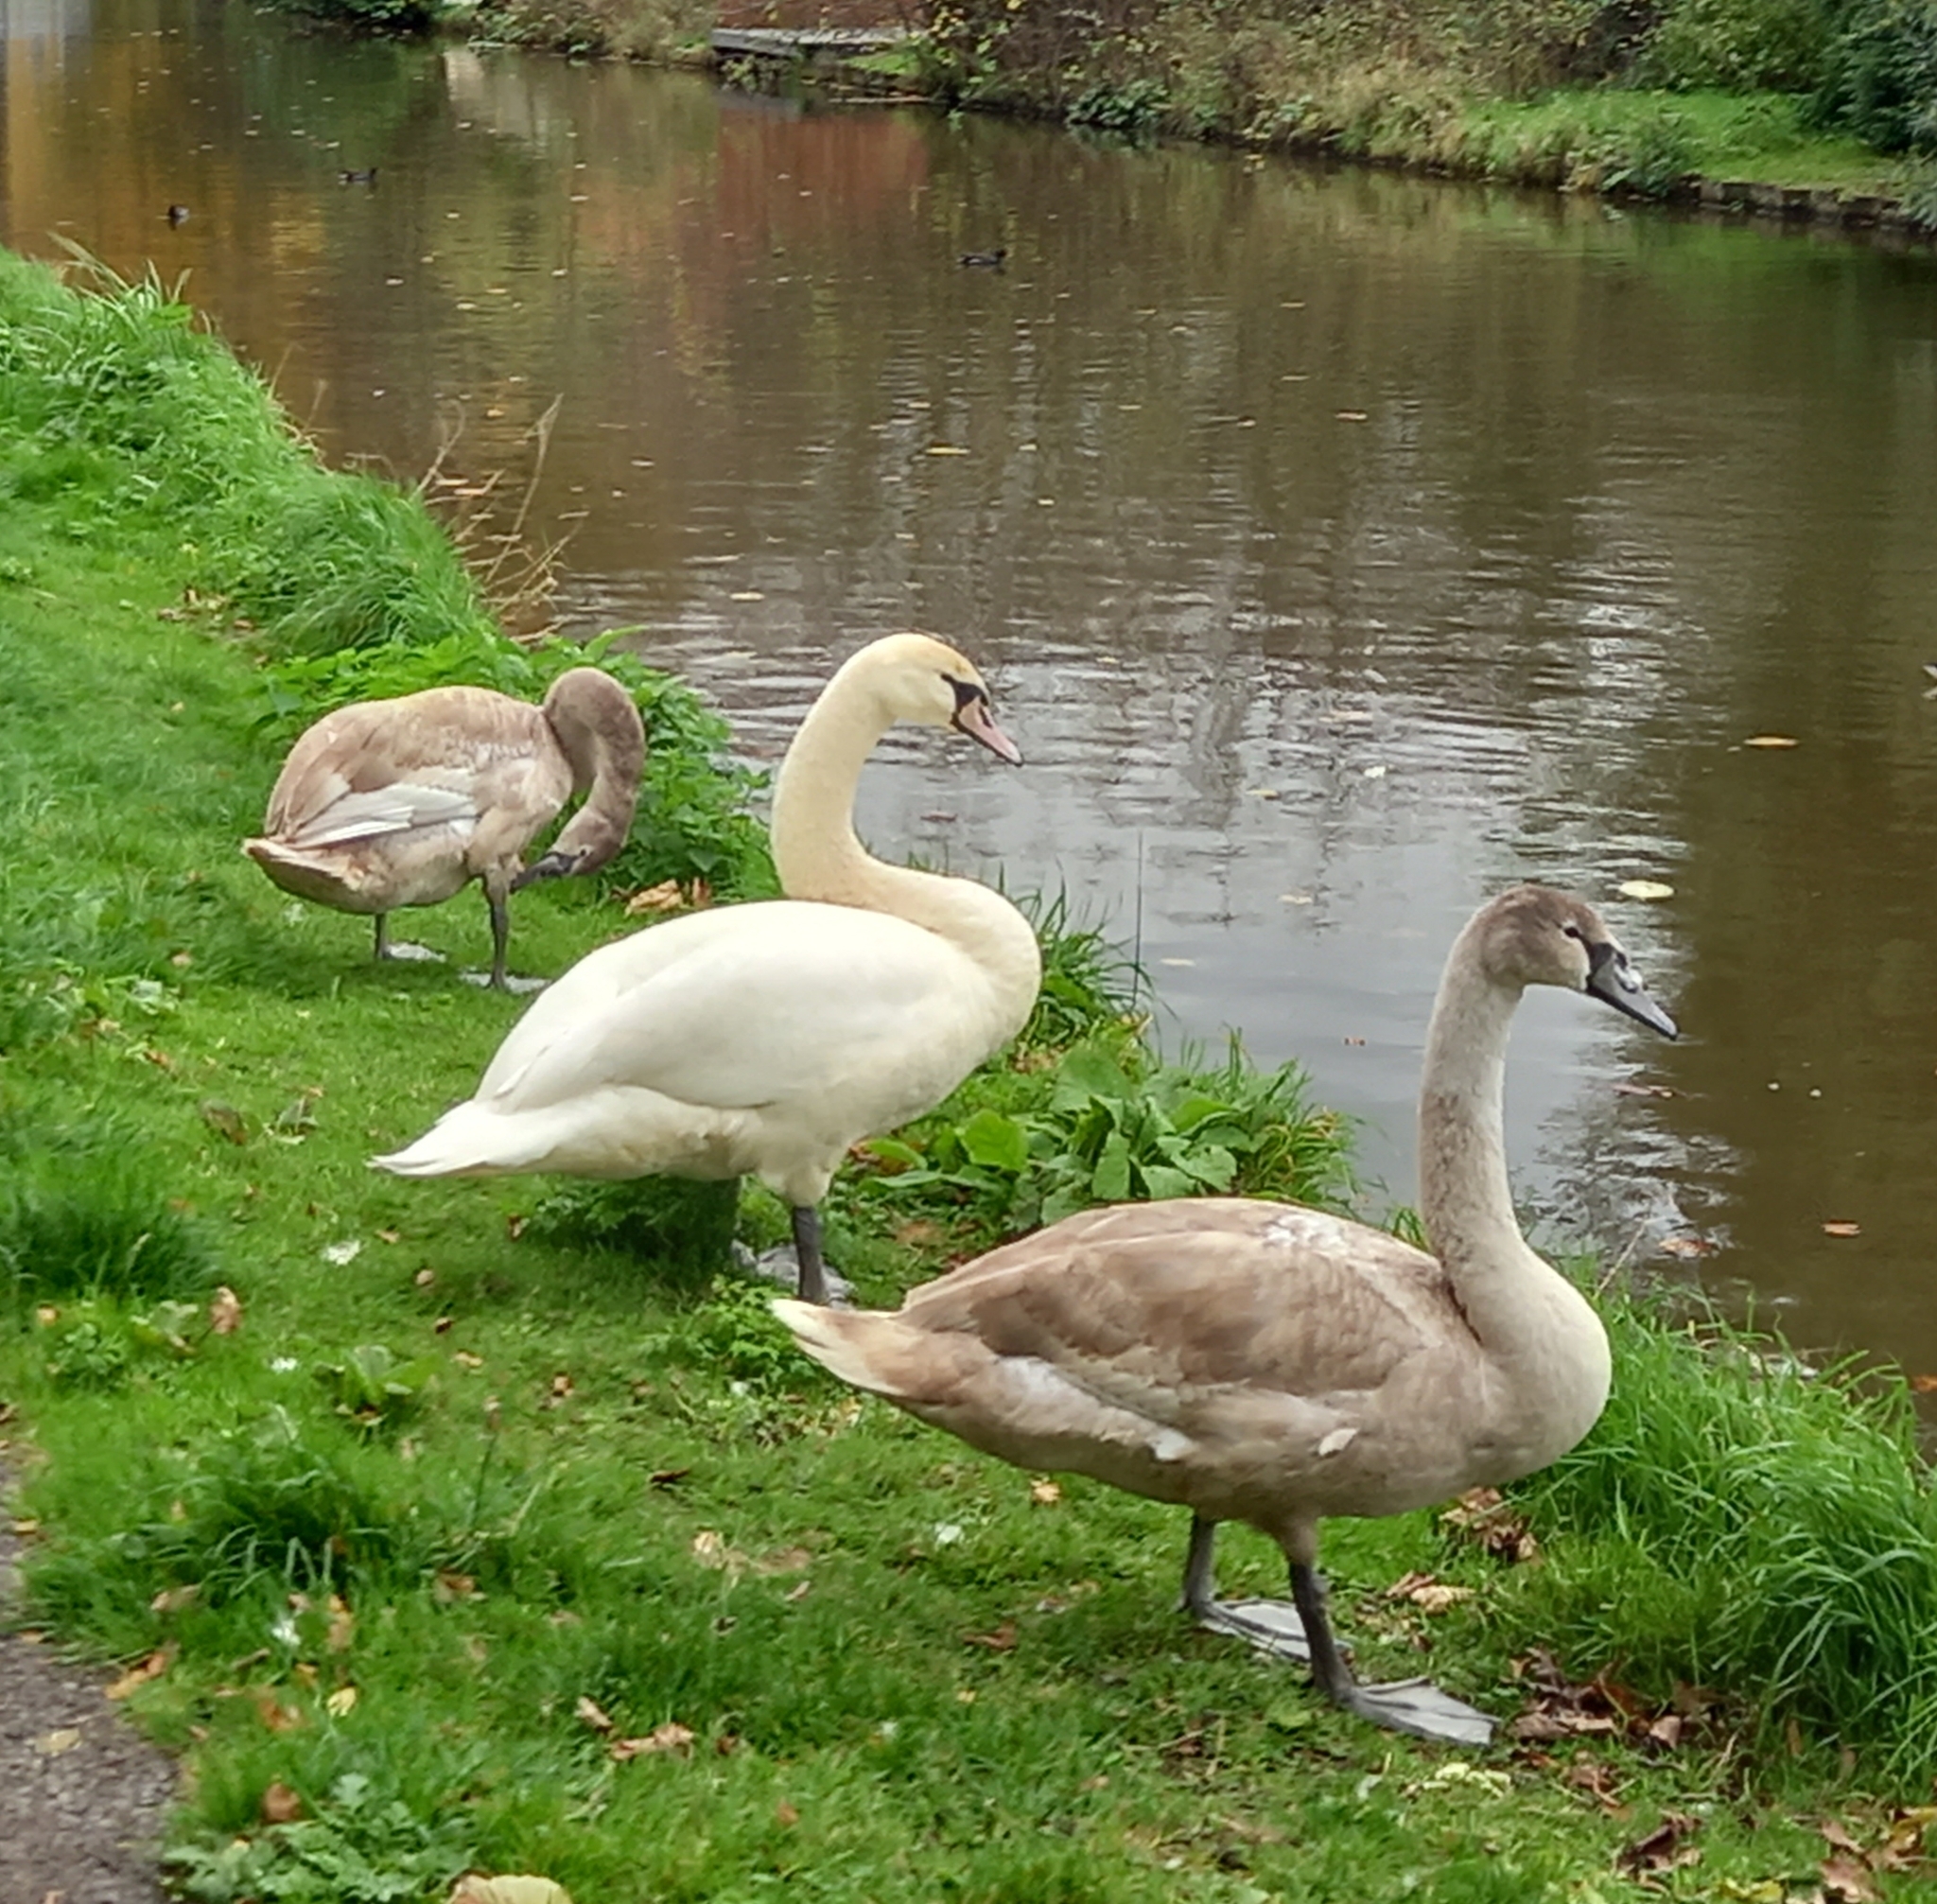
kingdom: Animalia
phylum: Chordata
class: Aves
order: Anseriformes
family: Anatidae
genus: Cygnus
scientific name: Cygnus olor
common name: Mute swan
